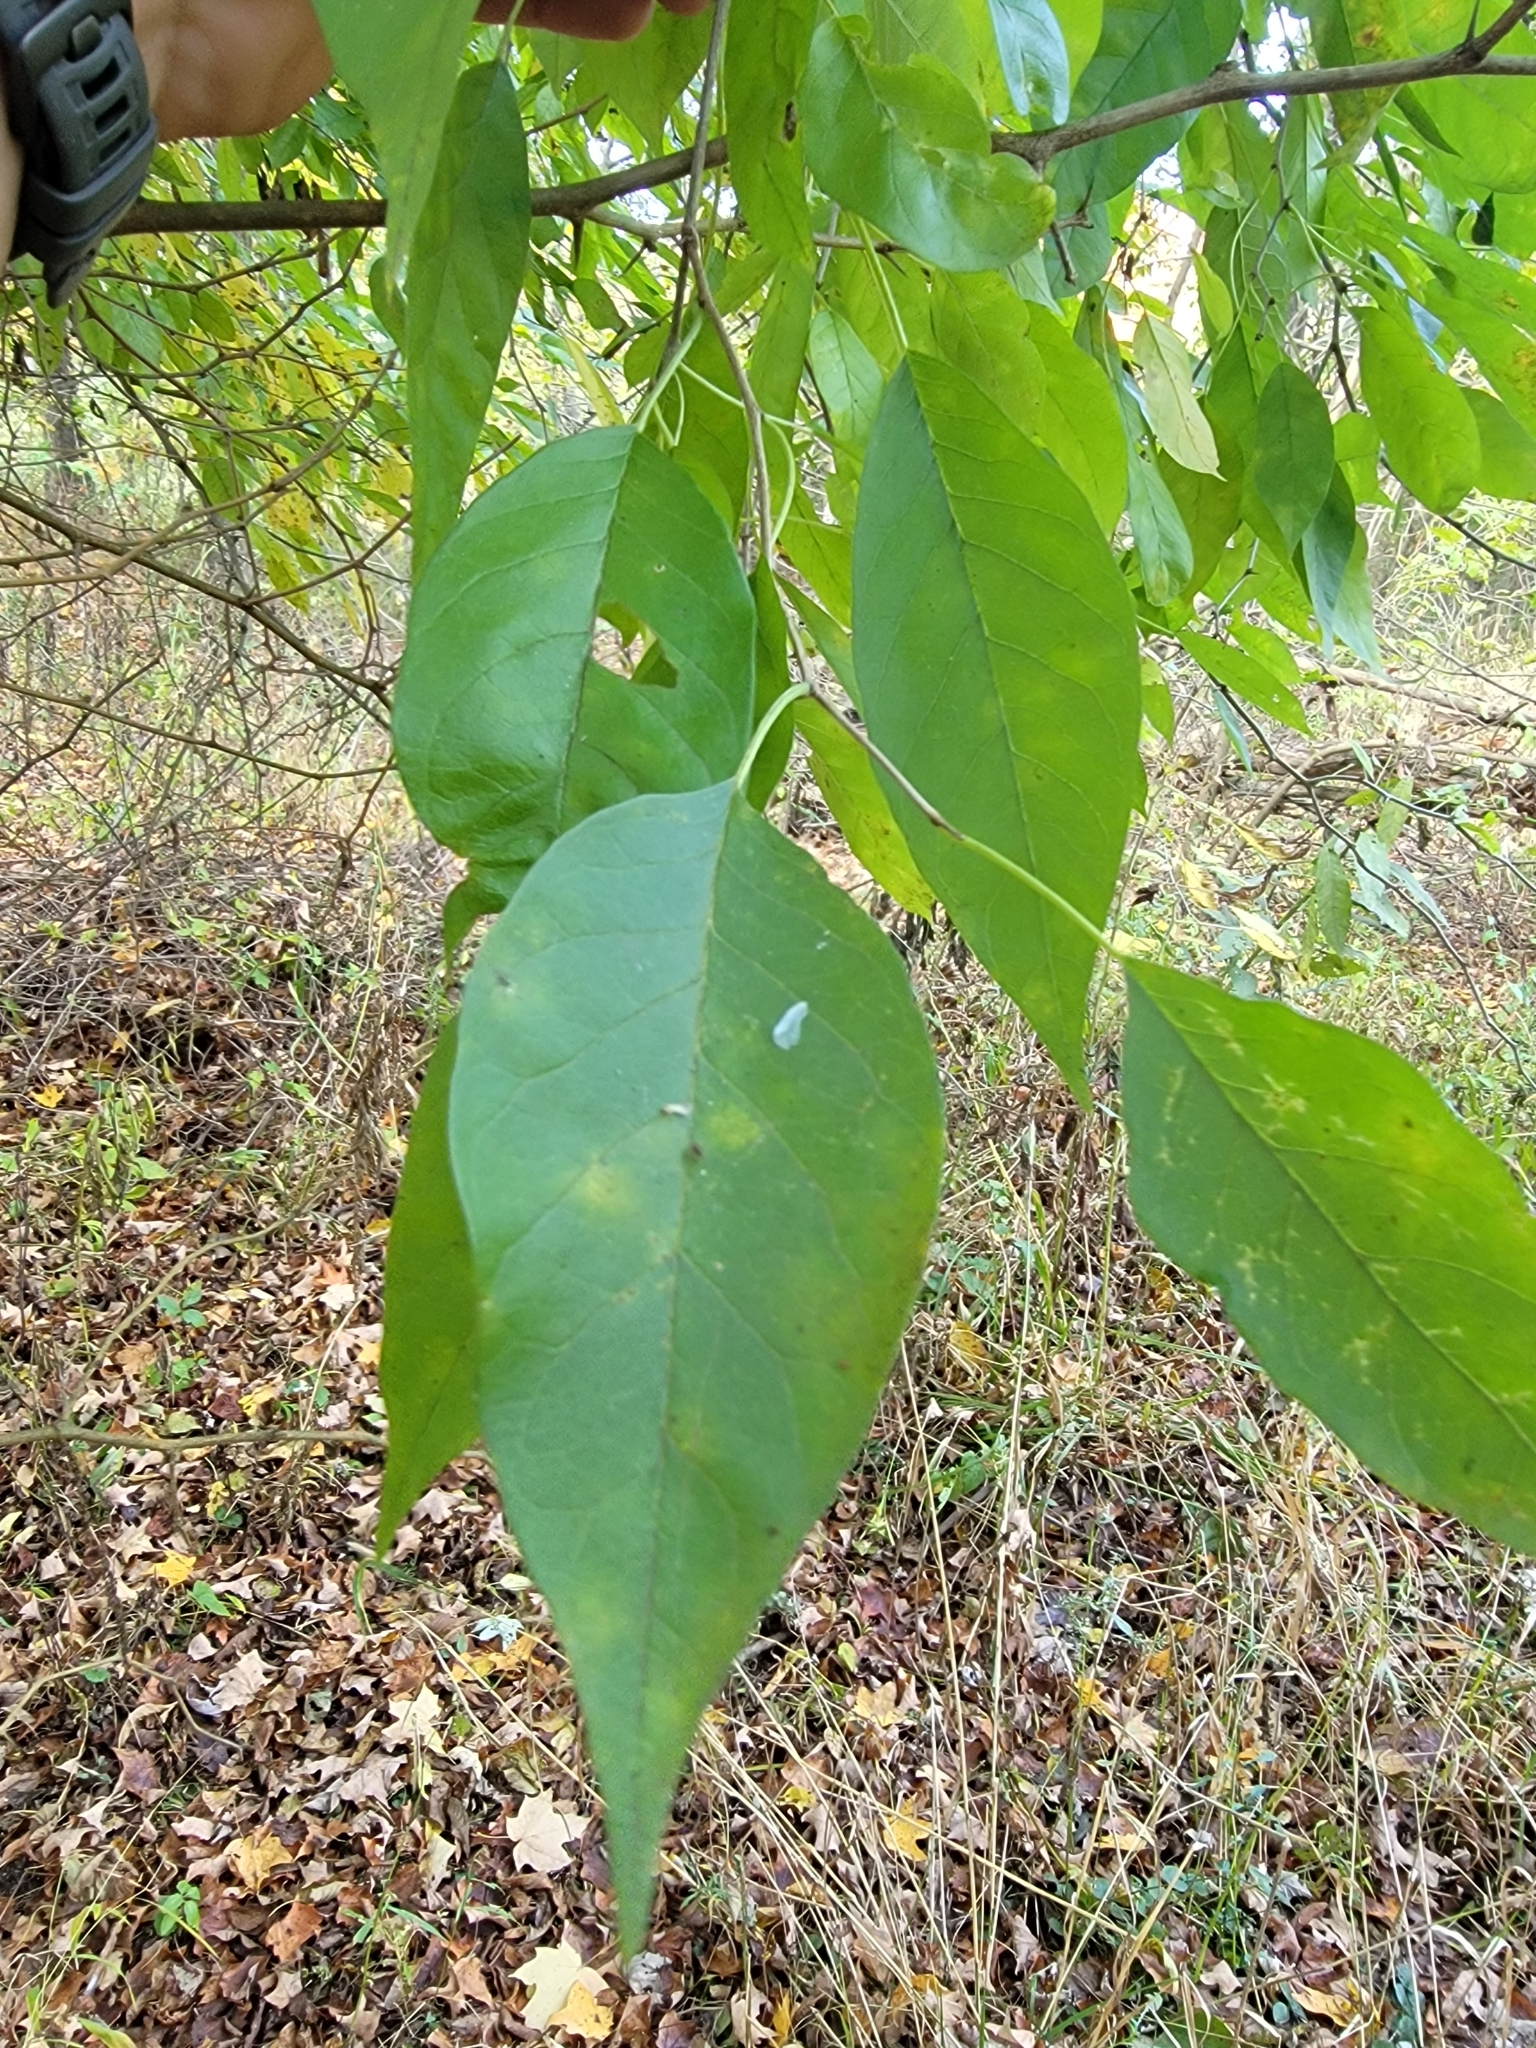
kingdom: Plantae
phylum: Tracheophyta
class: Magnoliopsida
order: Rosales
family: Moraceae
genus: Maclura
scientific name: Maclura pomifera
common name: Osage-orange
